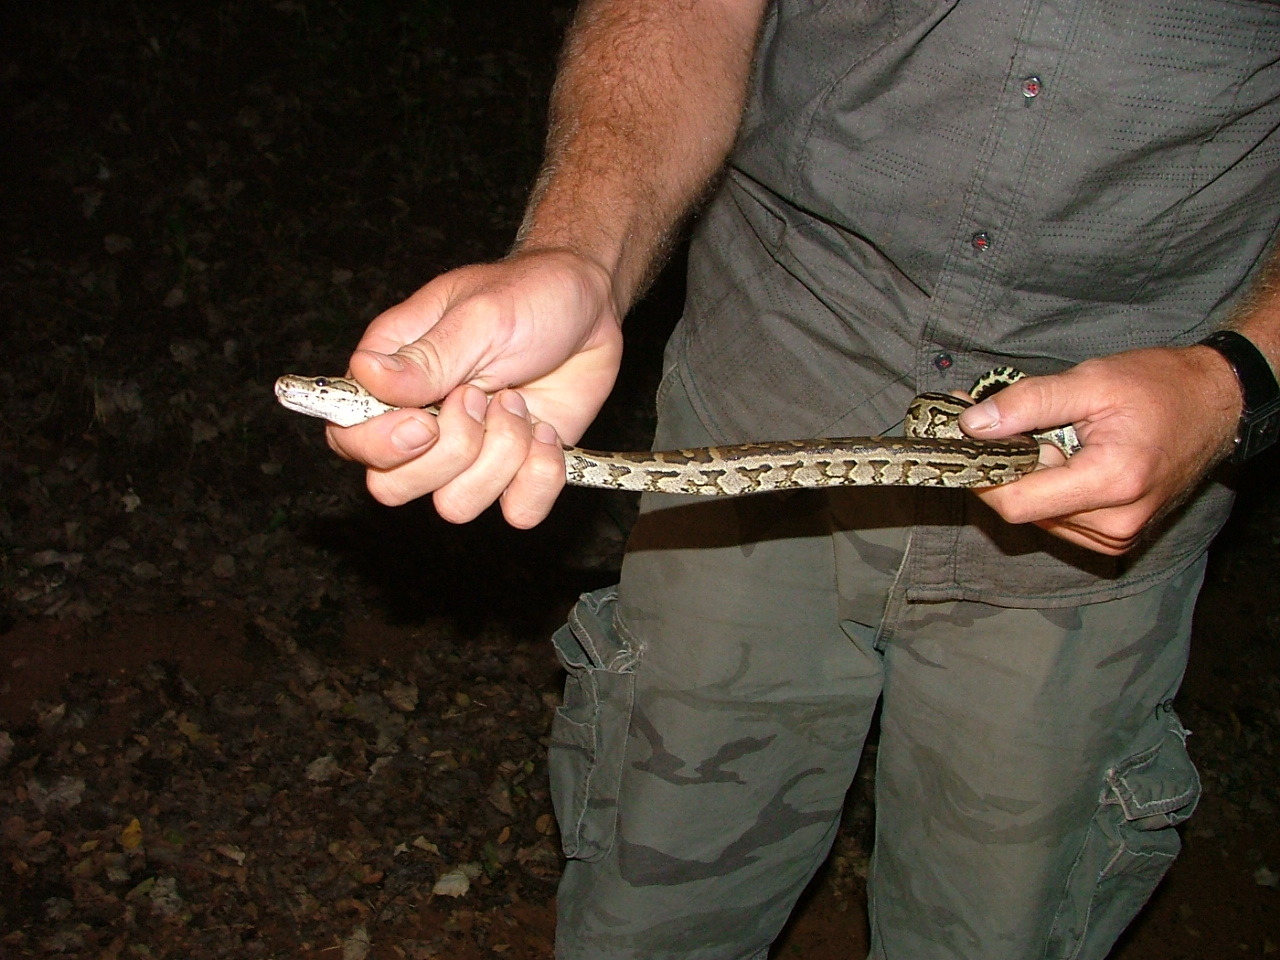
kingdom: Animalia
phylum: Chordata
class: Squamata
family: Pythonidae
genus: Python
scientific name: Python natalensis
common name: Southern african rock python
